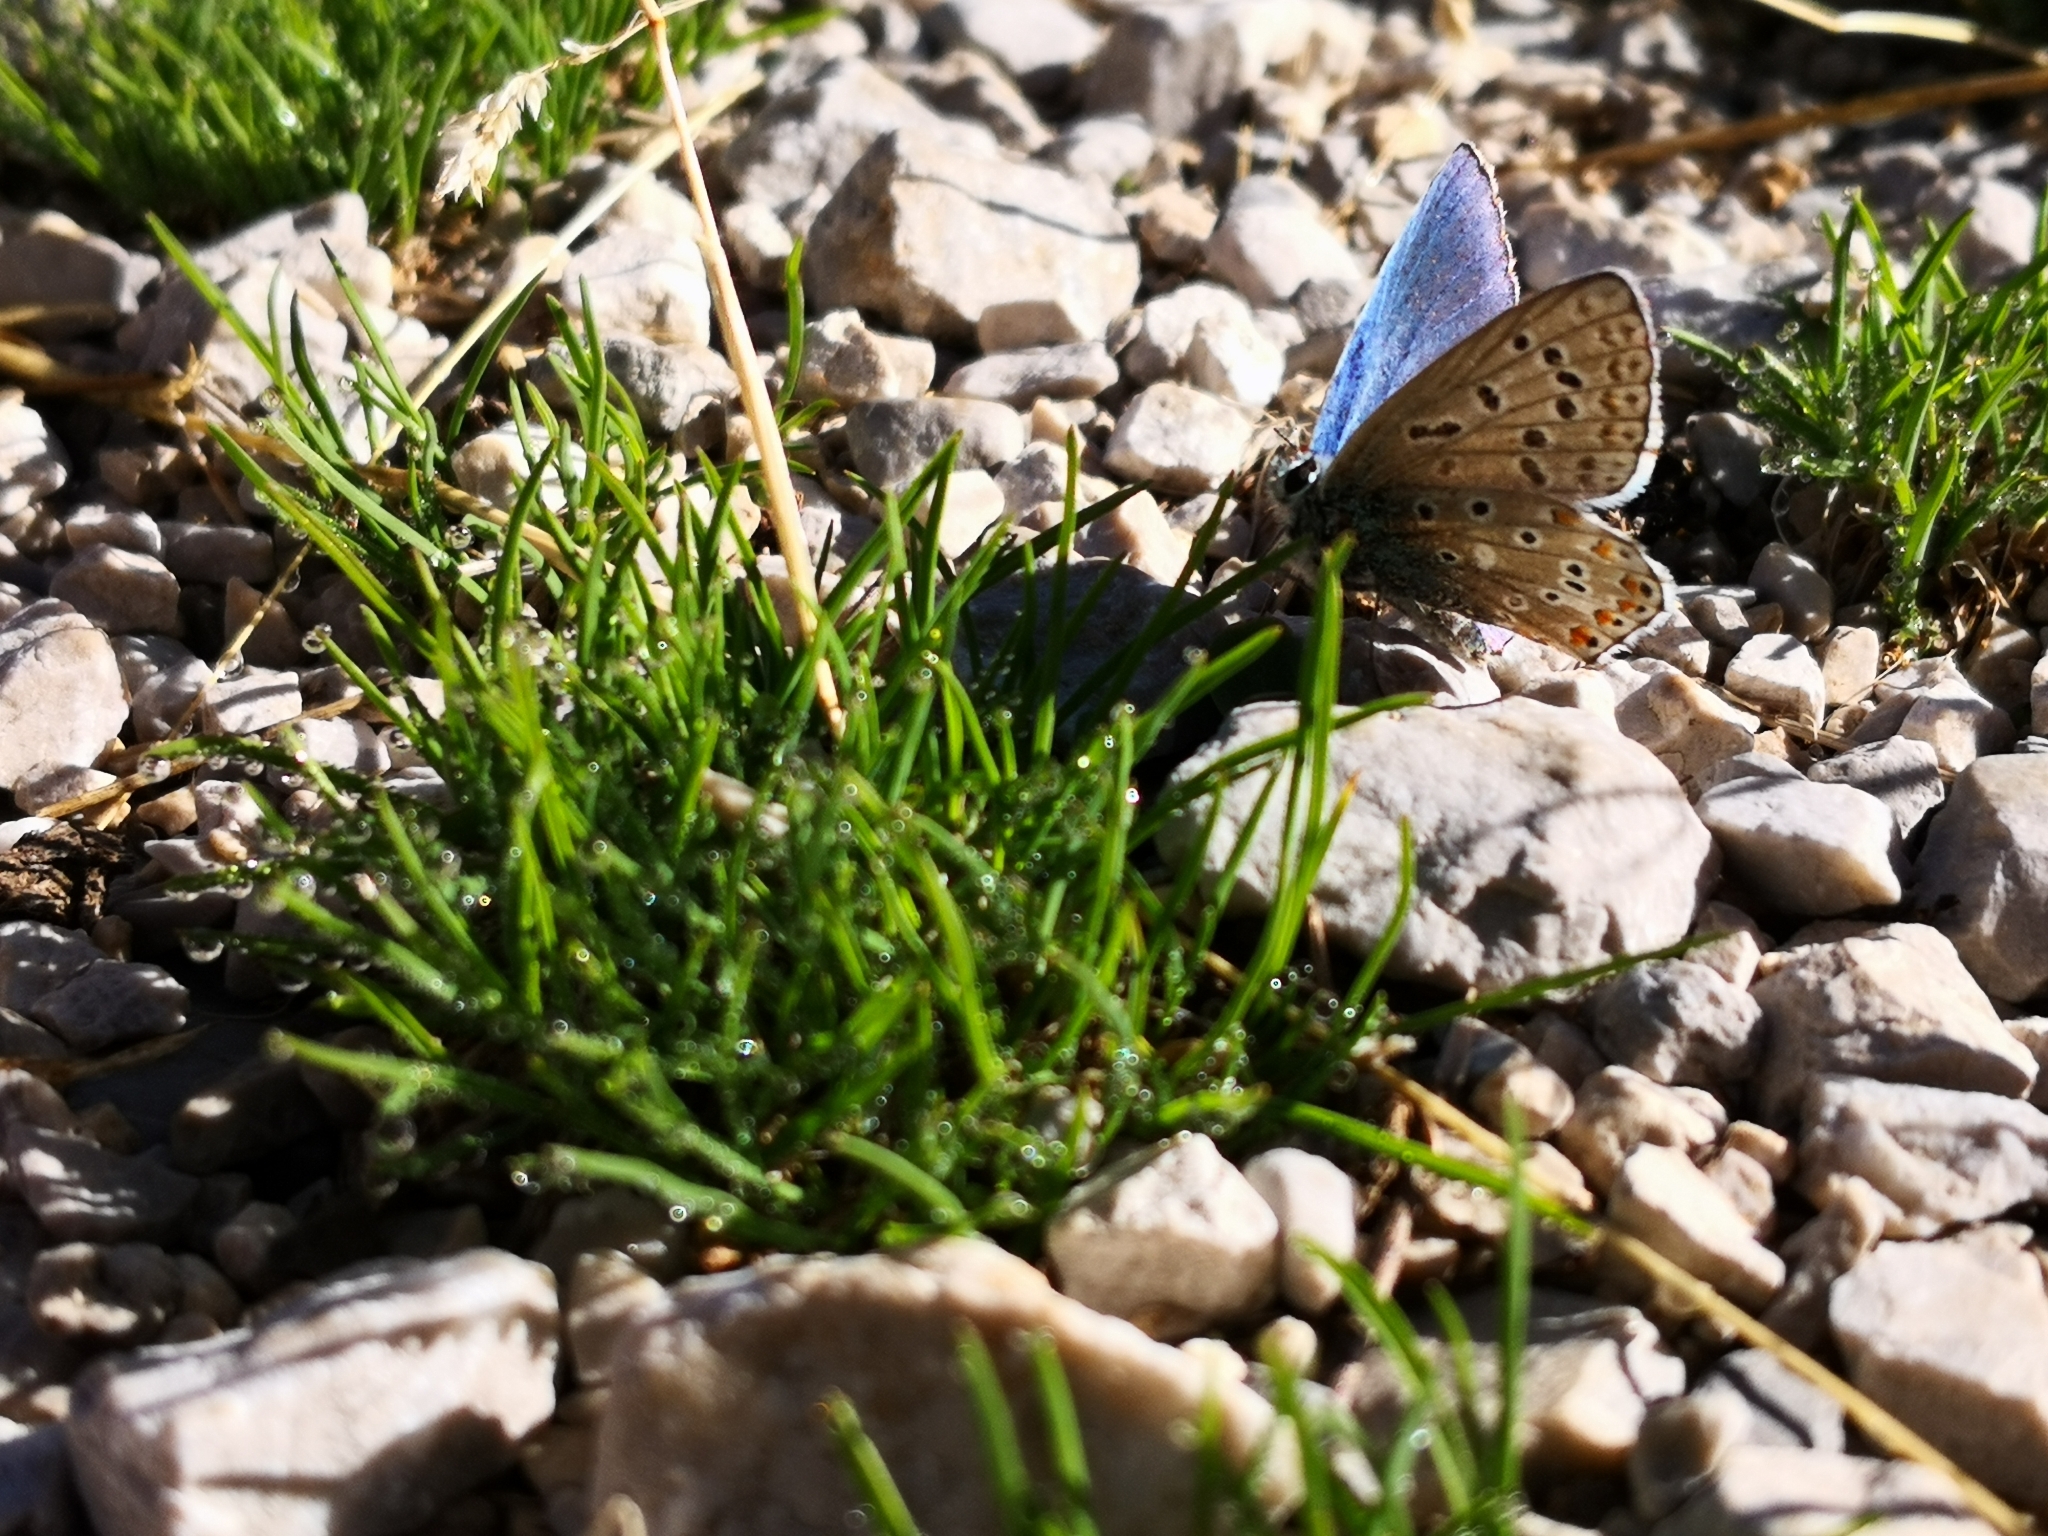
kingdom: Animalia
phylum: Arthropoda
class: Insecta
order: Lepidoptera
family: Lycaenidae
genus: Lysandra
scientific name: Lysandra bellargus
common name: Adonis blue
